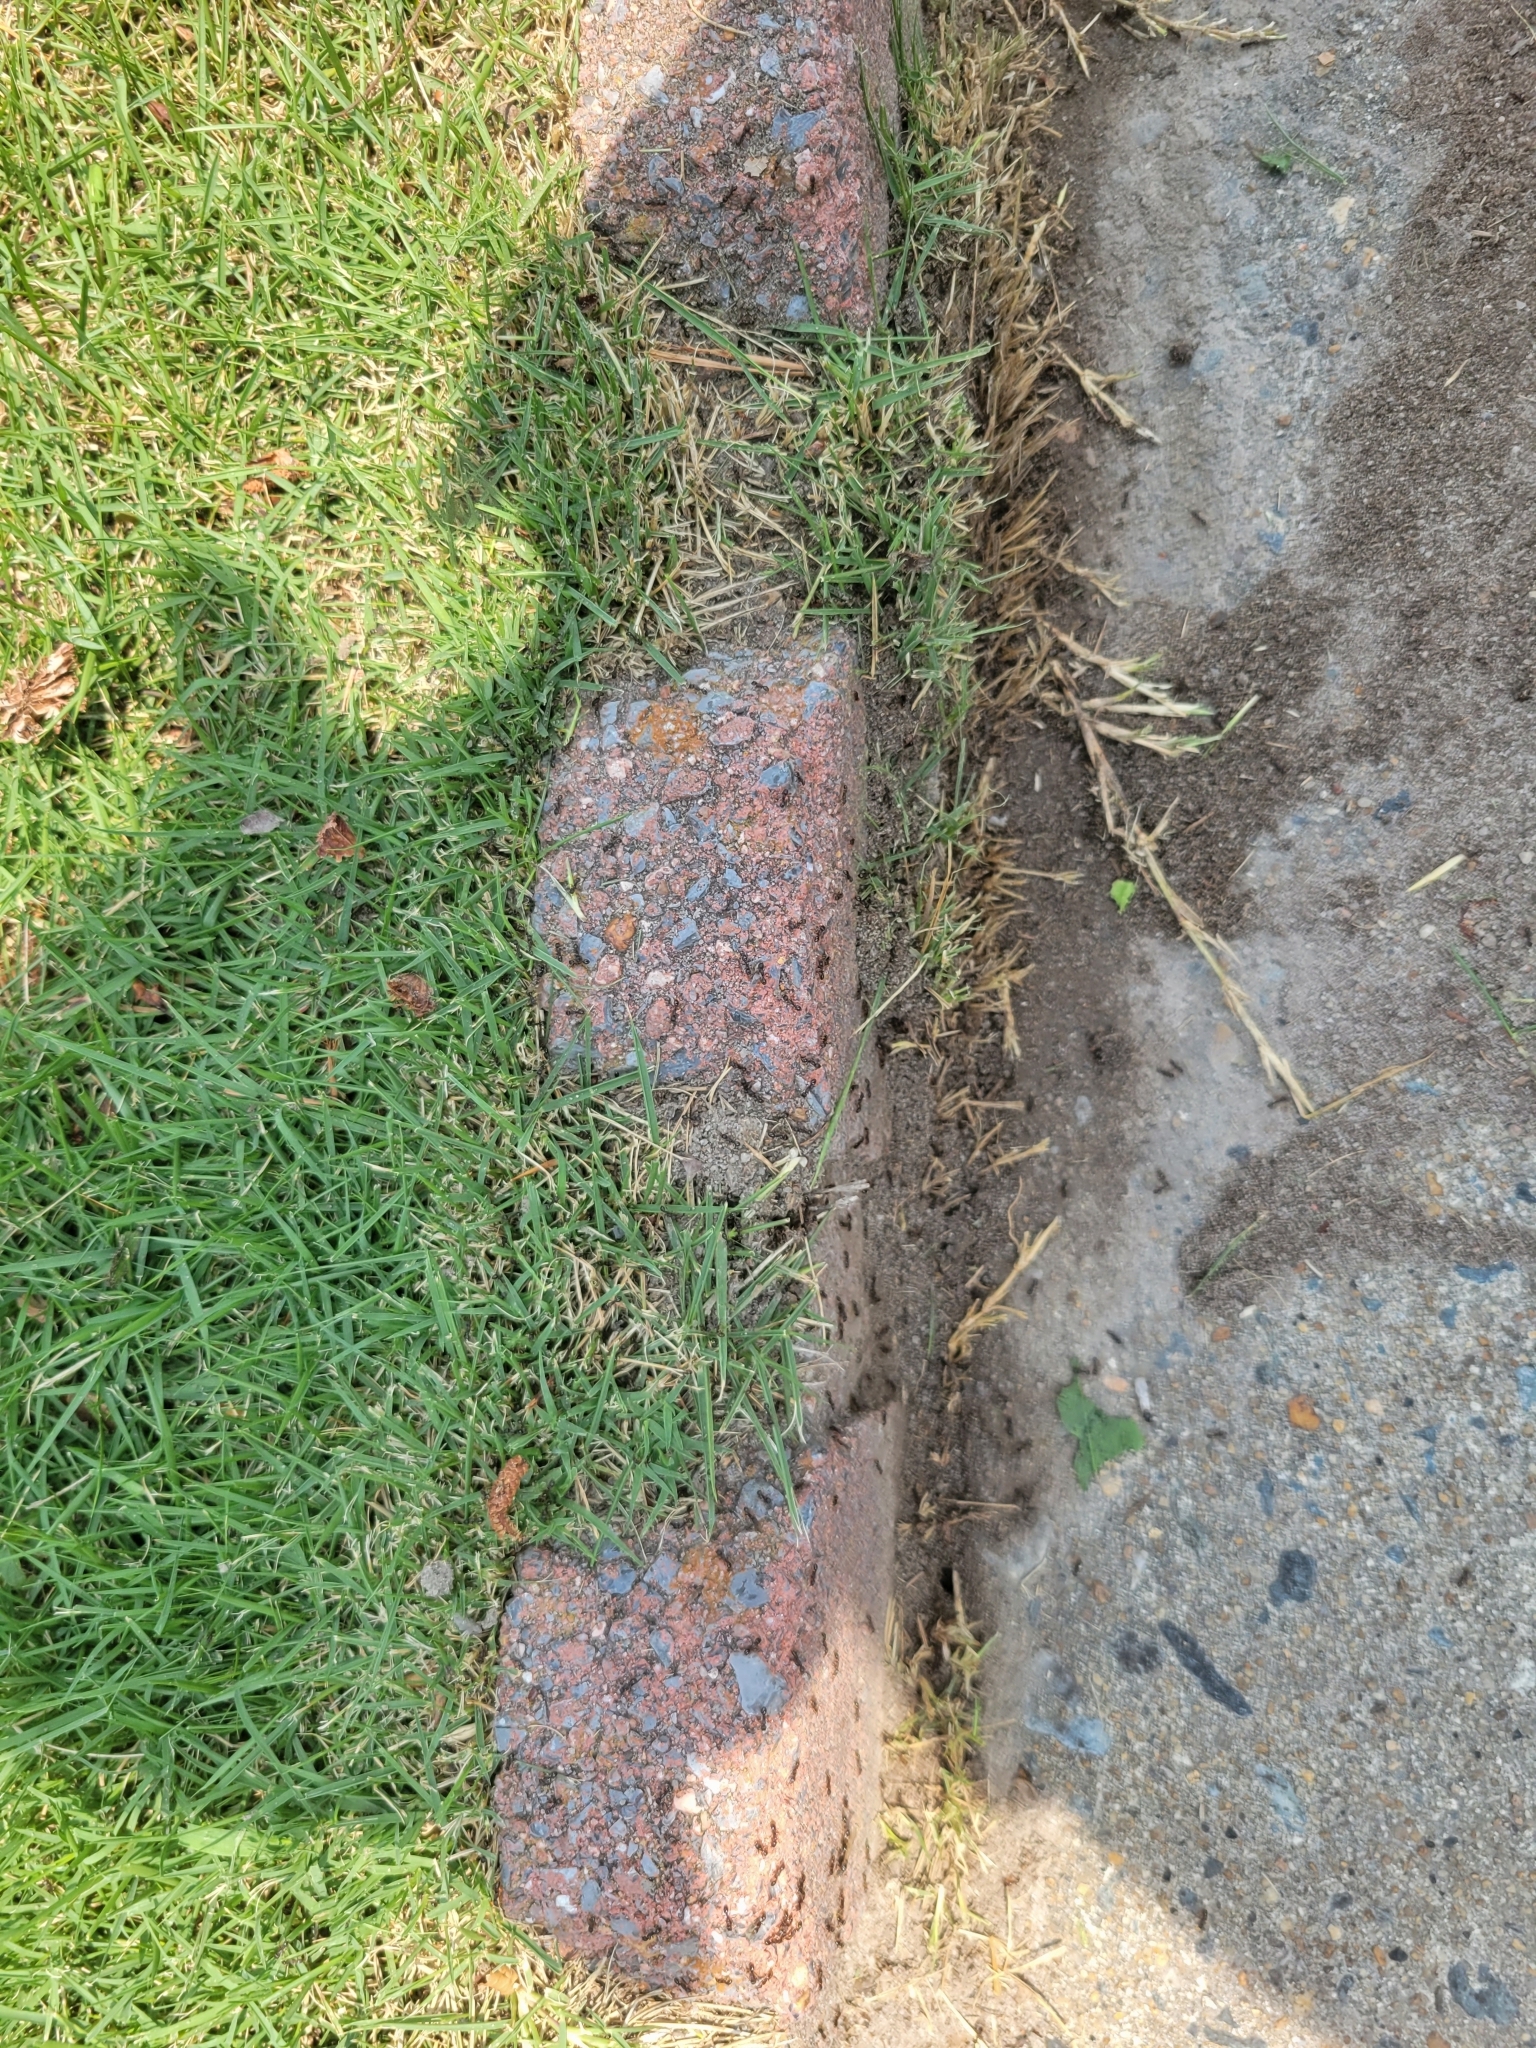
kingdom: Animalia
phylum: Arthropoda
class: Insecta
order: Hymenoptera
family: Formicidae
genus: Tetramorium
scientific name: Tetramorium immigrans
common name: Pavement ant
